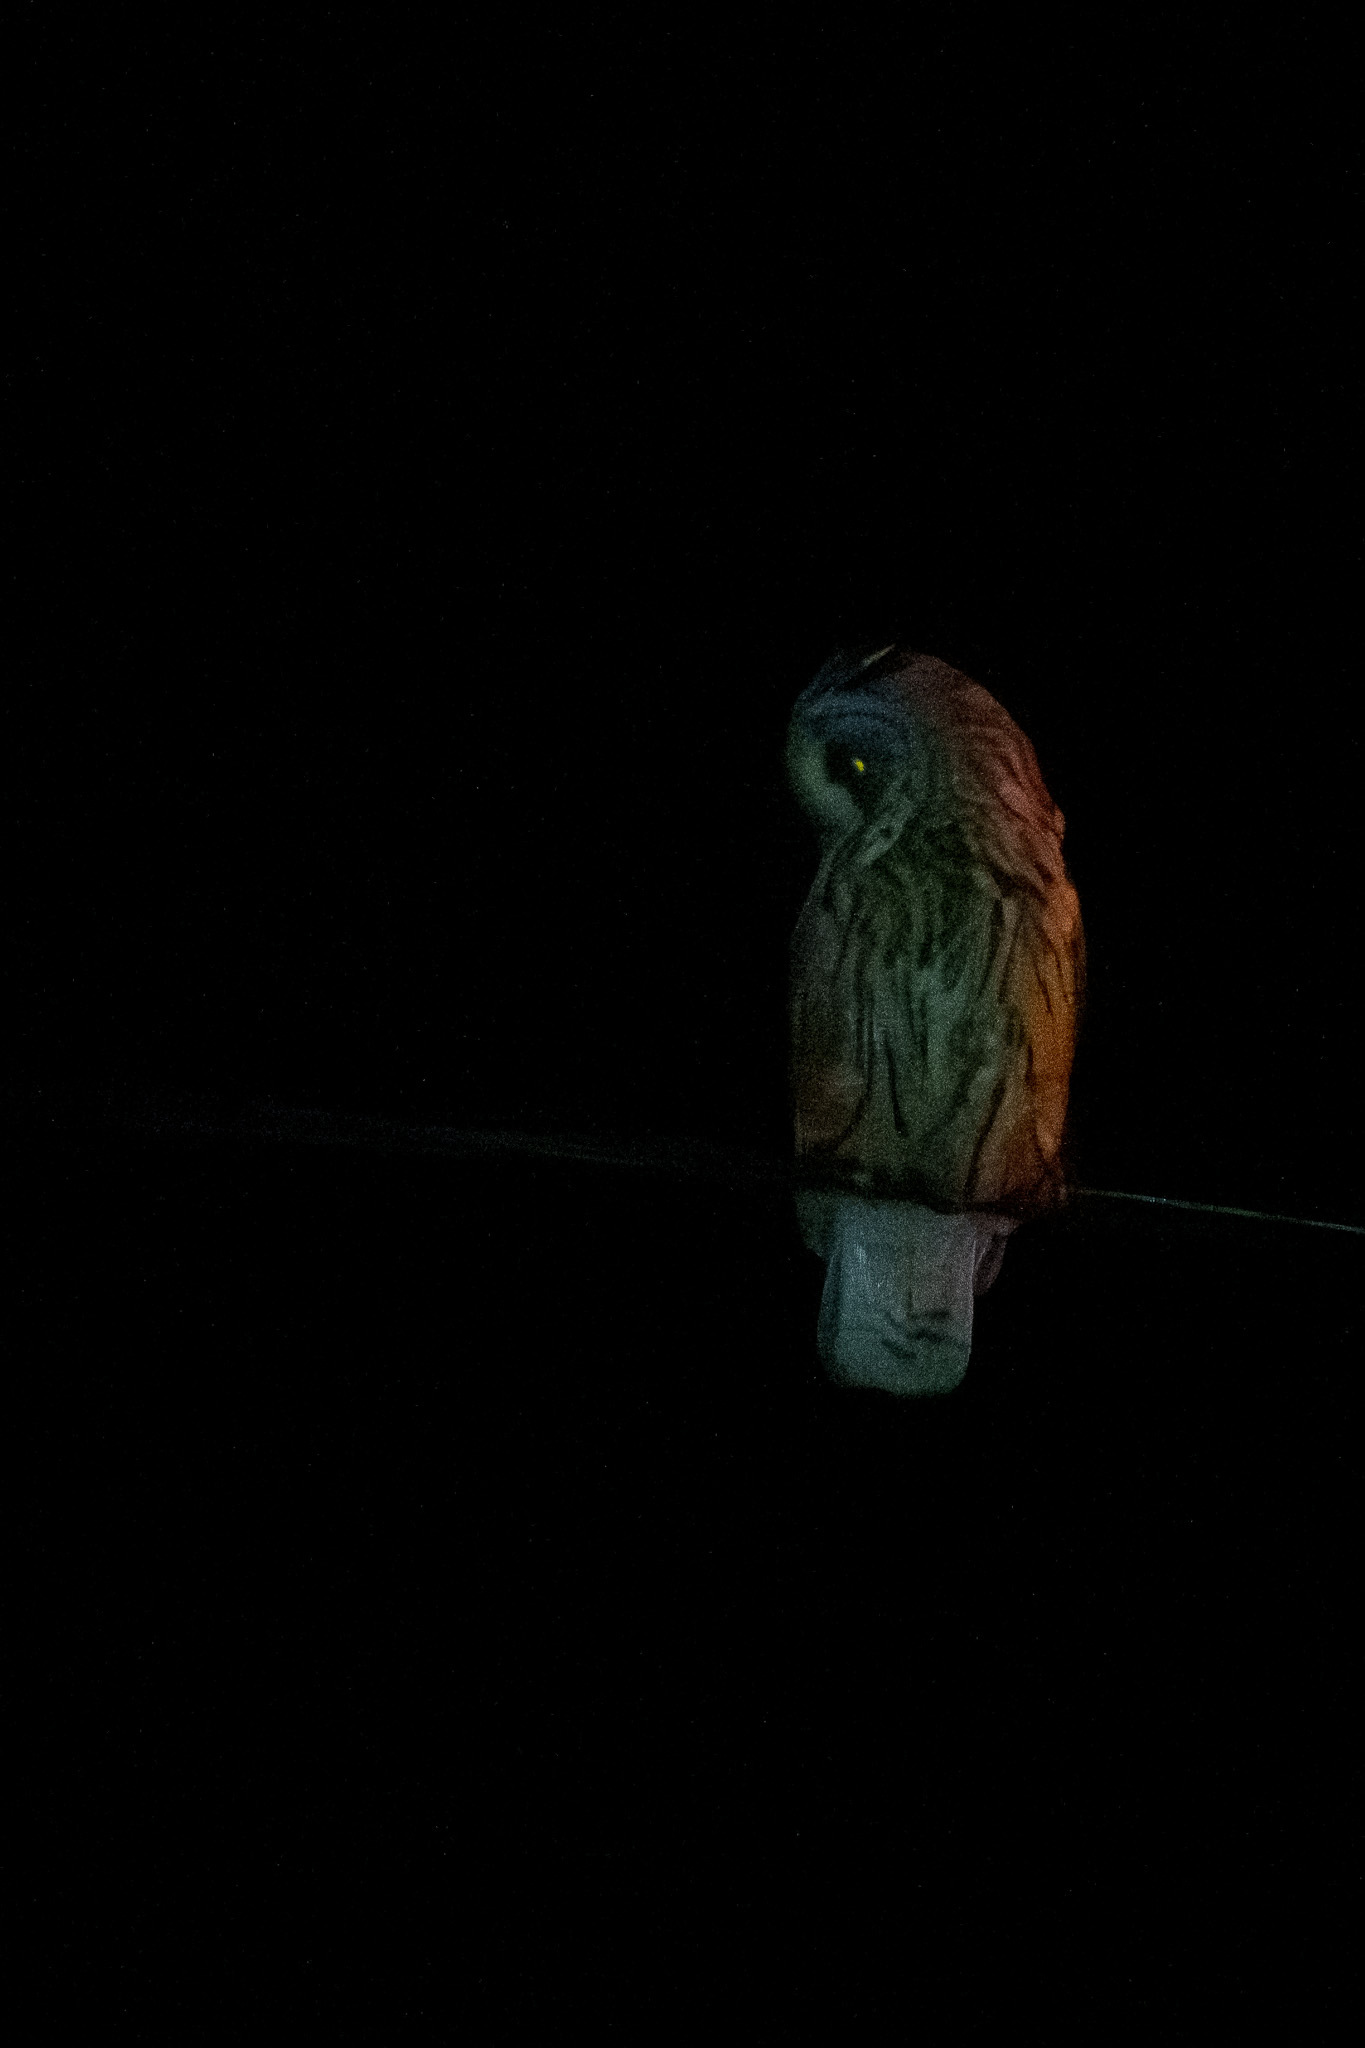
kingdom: Animalia
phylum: Chordata
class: Aves
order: Strigiformes
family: Strigidae
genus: Asio
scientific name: Asio otus
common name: Long-eared owl
